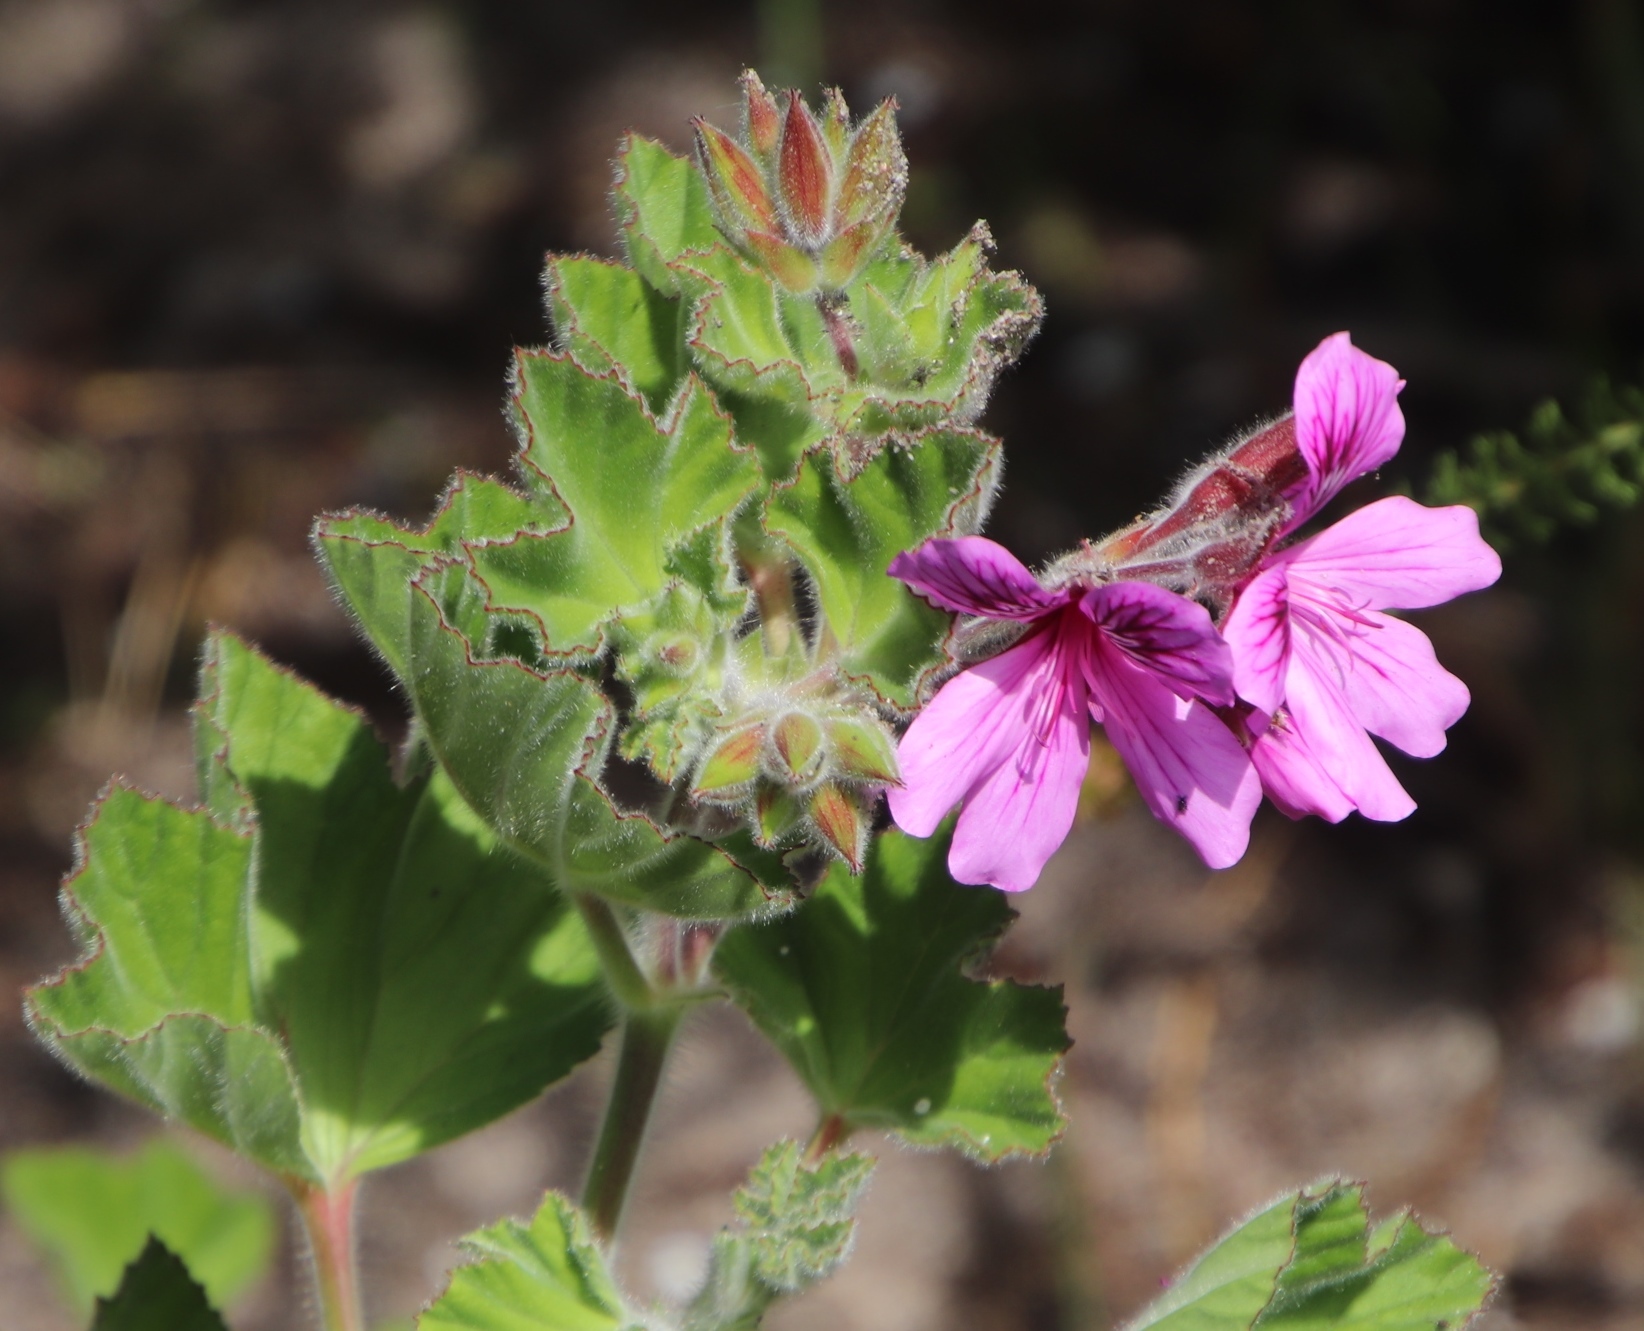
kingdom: Plantae
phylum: Tracheophyta
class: Magnoliopsida
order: Geraniales
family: Geraniaceae
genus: Pelargonium
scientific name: Pelargonium cucullatum
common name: Tree pelargonium
